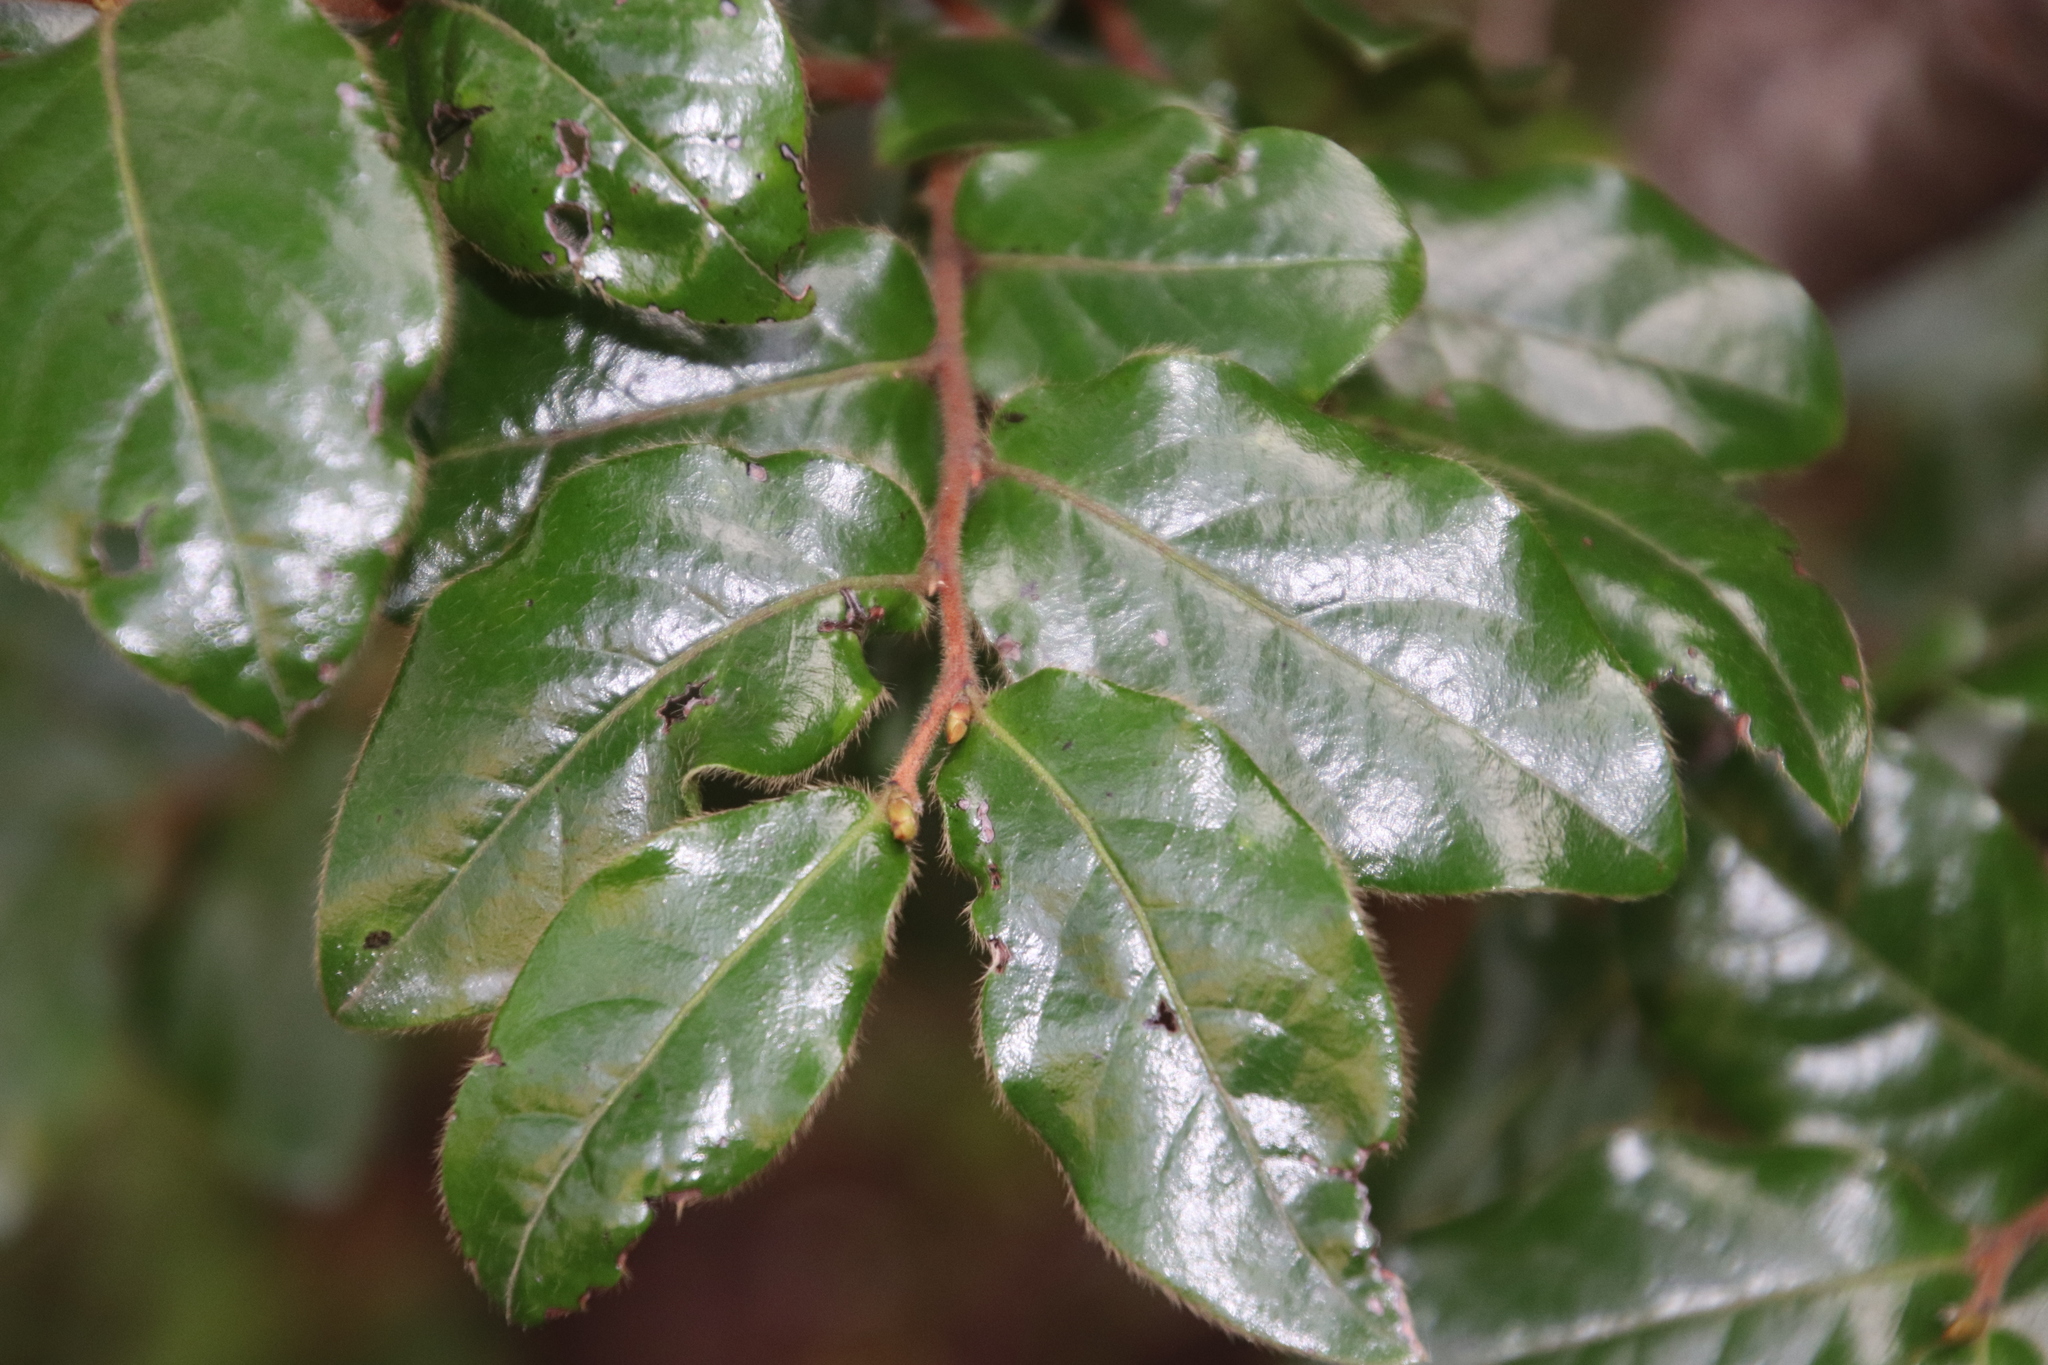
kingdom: Plantae
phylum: Tracheophyta
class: Magnoliopsida
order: Ericales
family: Ebenaceae
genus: Diospyros
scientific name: Diospyros whyteana
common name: Bladder-nut
